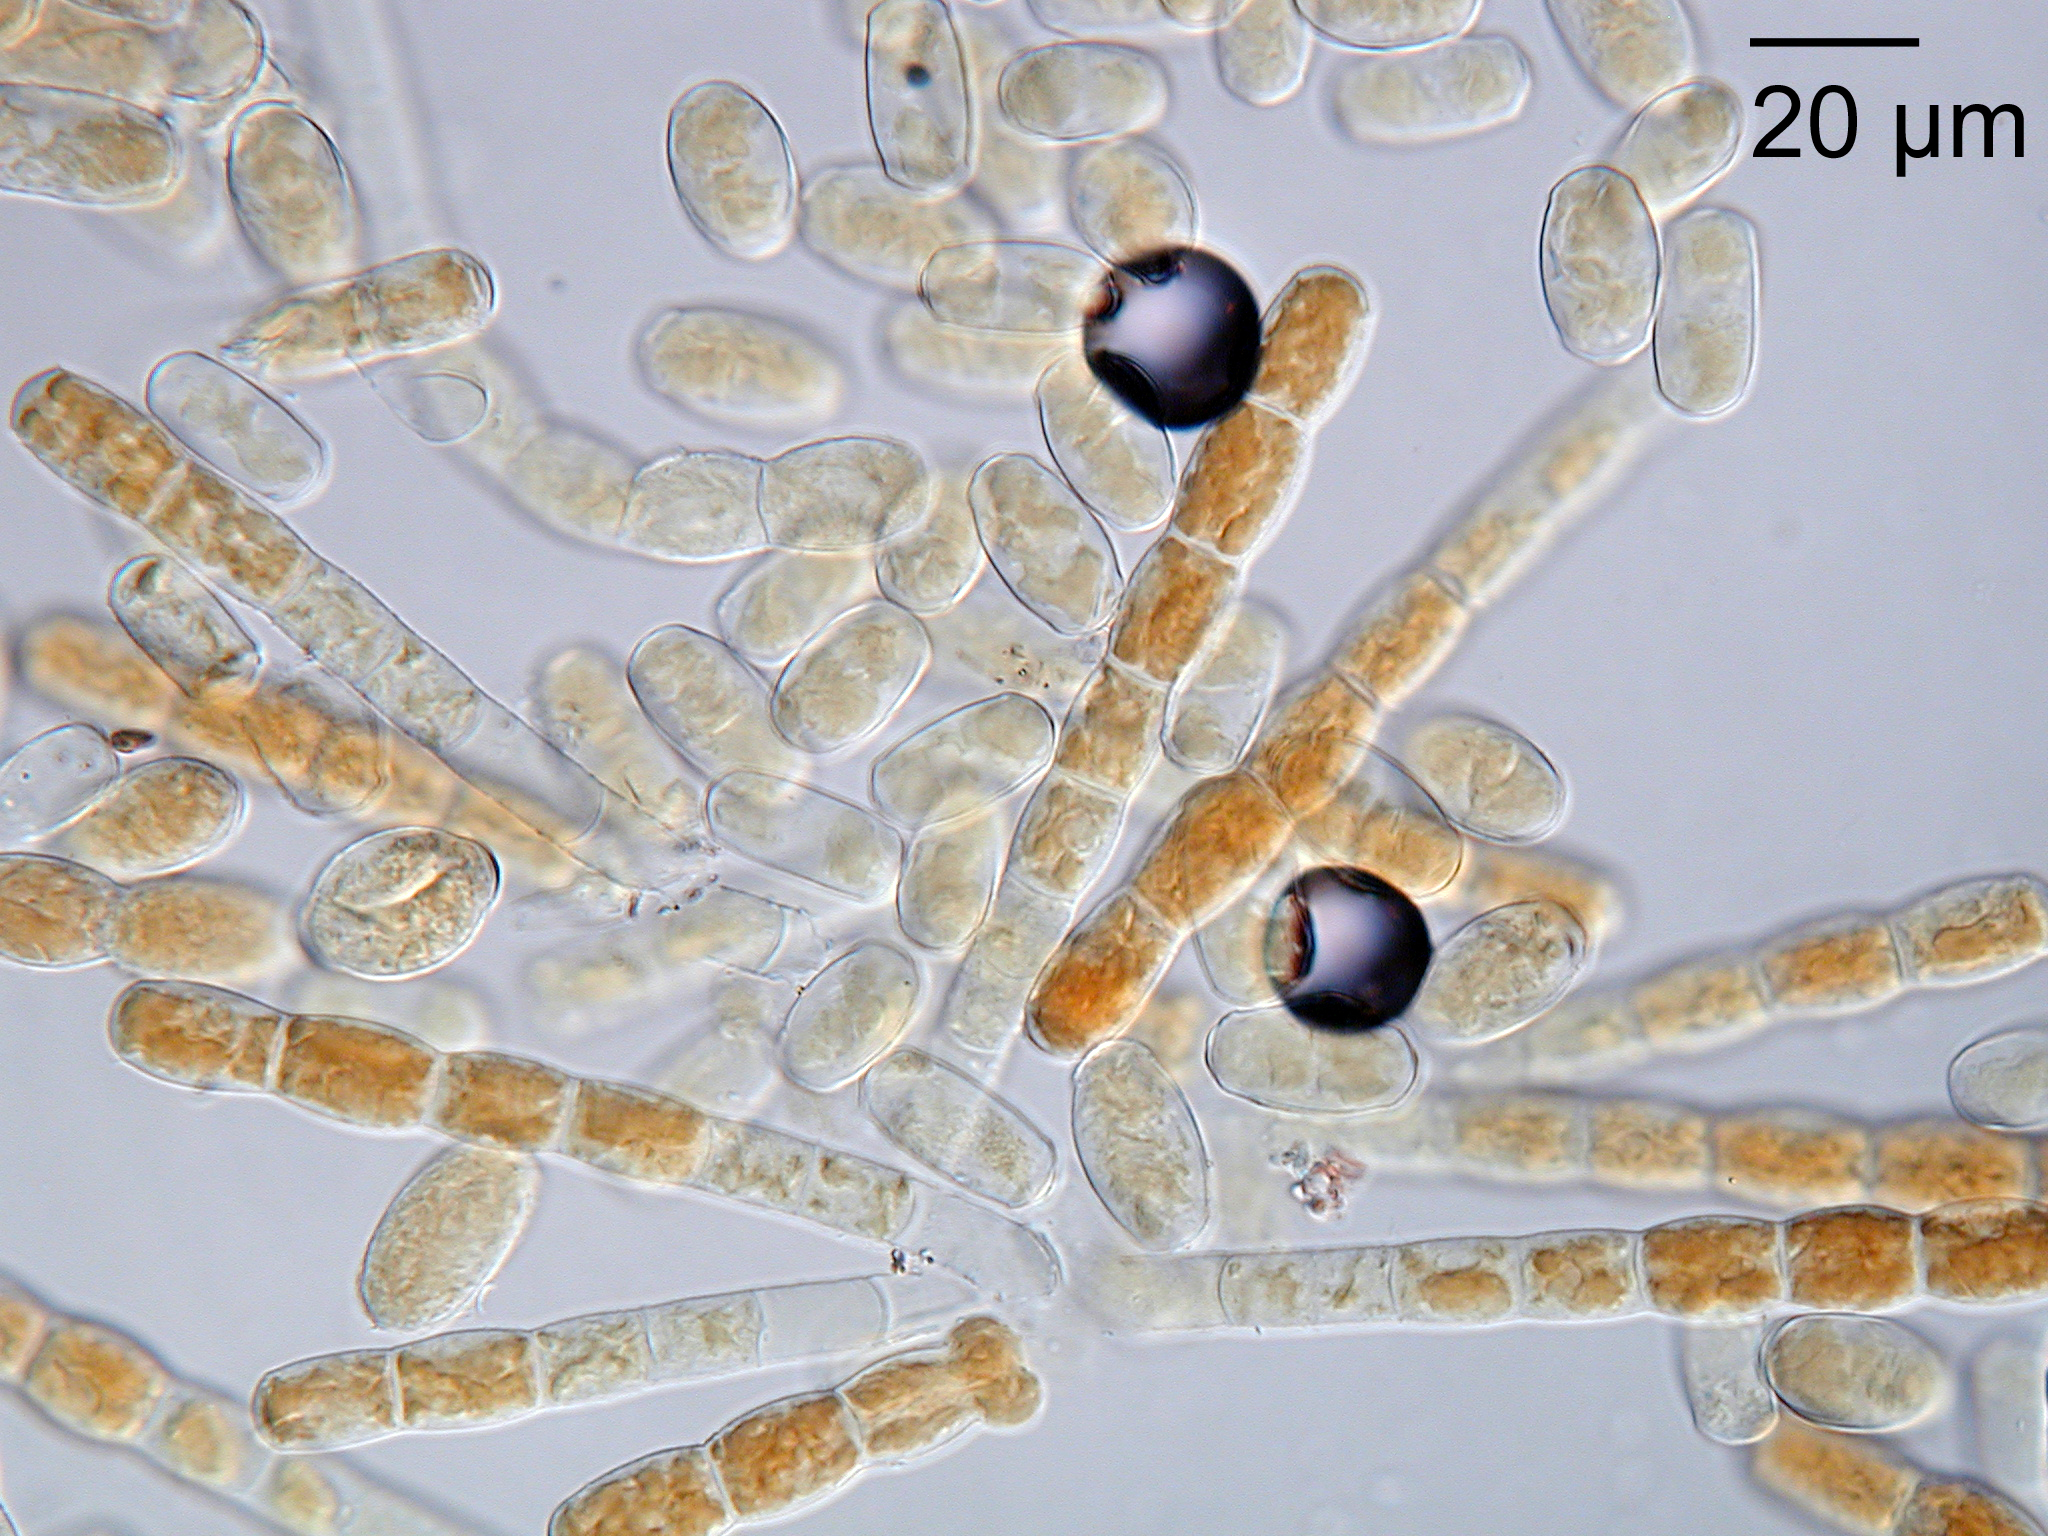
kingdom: Fungi
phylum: Ascomycota
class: Leotiomycetes
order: Helotiales
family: Erysiphaceae
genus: Podosphaera
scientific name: Podosphaera pruni-avium
